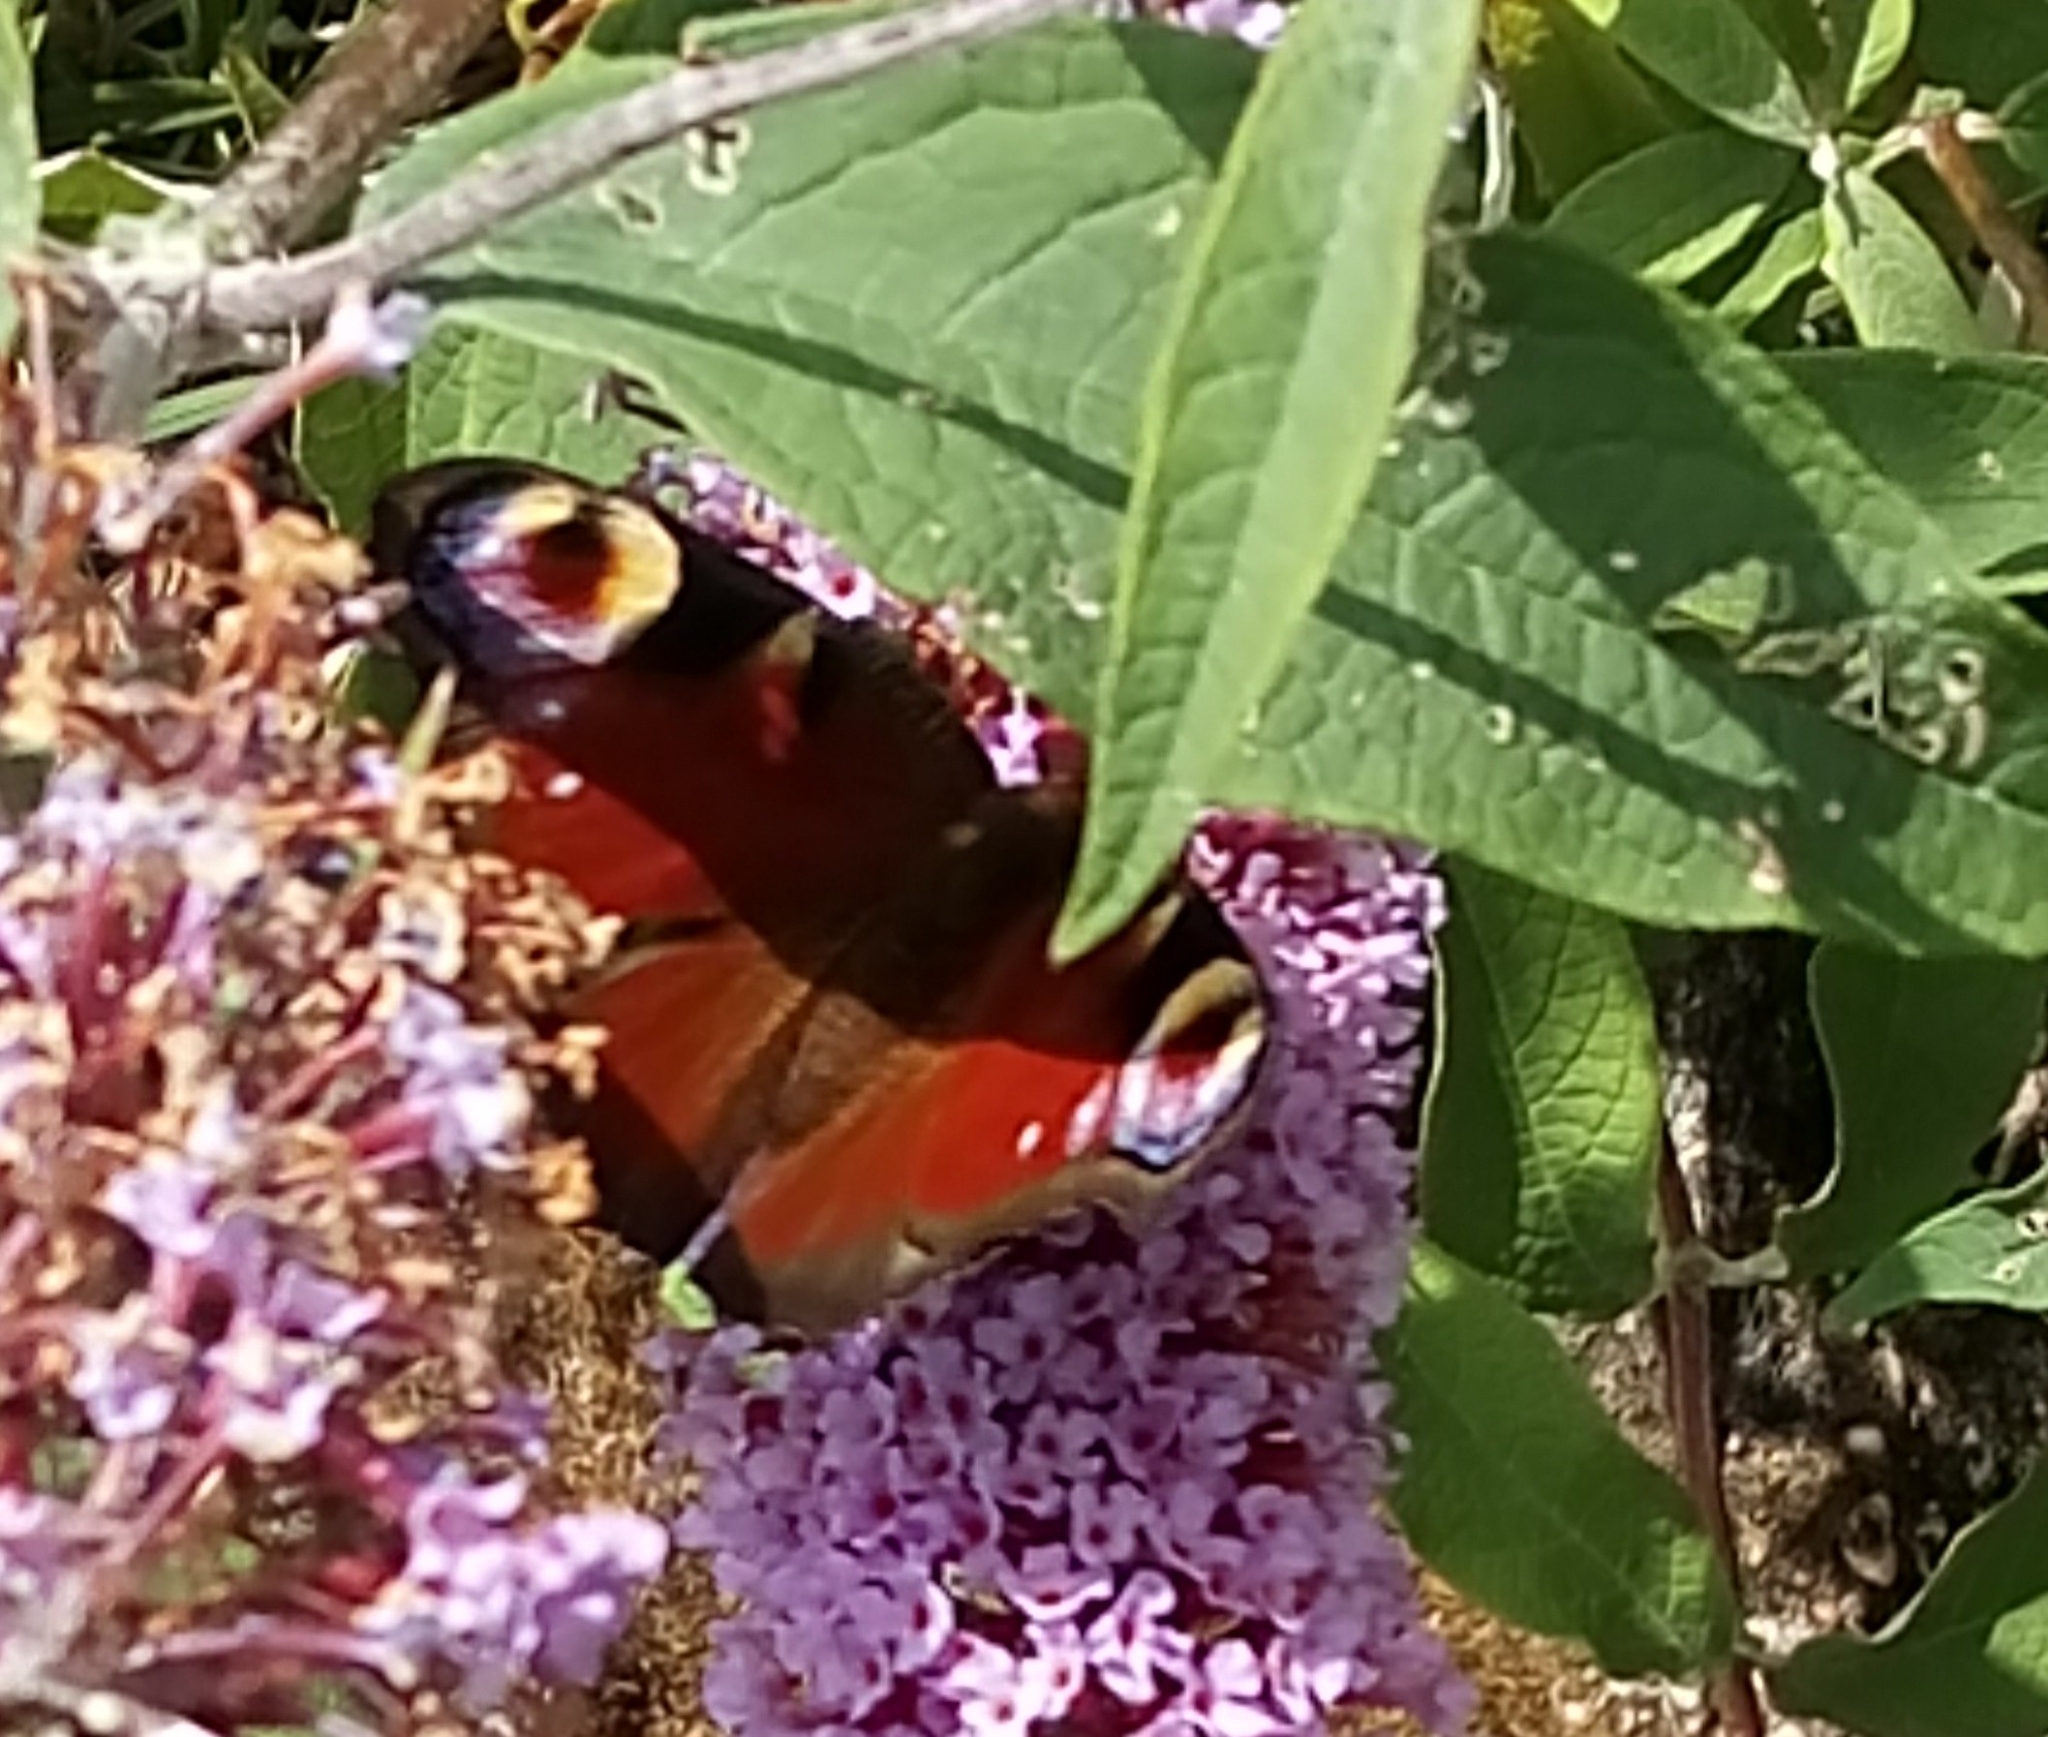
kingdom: Animalia
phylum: Arthropoda
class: Insecta
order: Lepidoptera
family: Nymphalidae
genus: Aglais
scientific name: Aglais io
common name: Peacock
